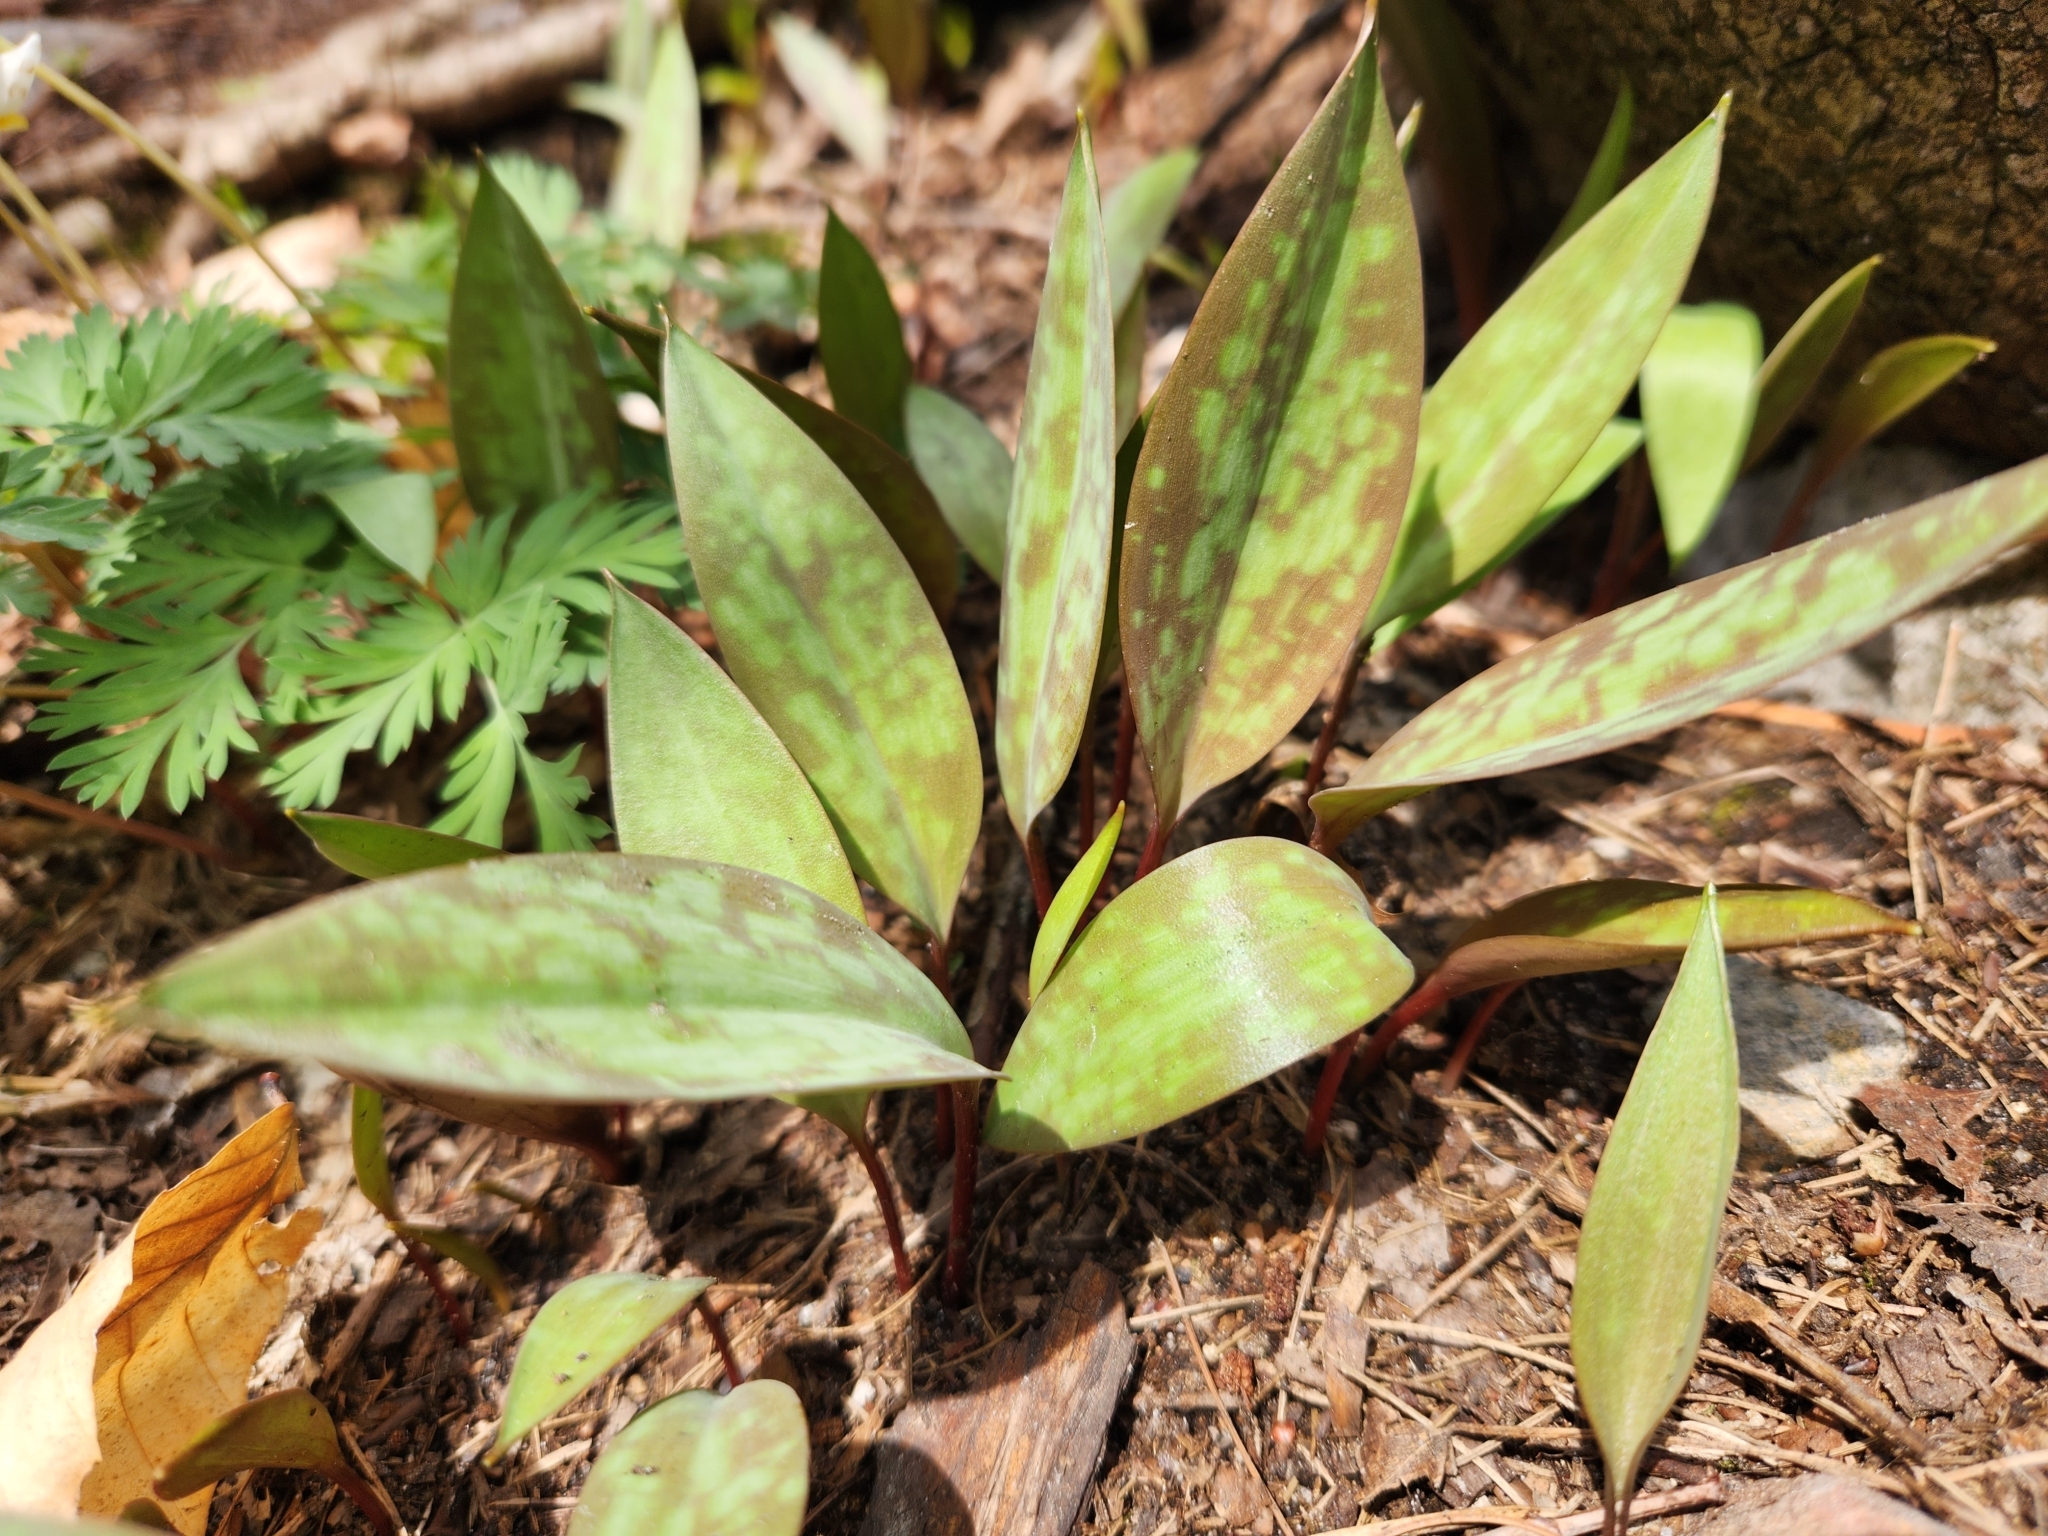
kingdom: Plantae
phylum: Tracheophyta
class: Liliopsida
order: Liliales
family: Liliaceae
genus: Erythronium
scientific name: Erythronium americanum
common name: Yellow adder's-tongue
